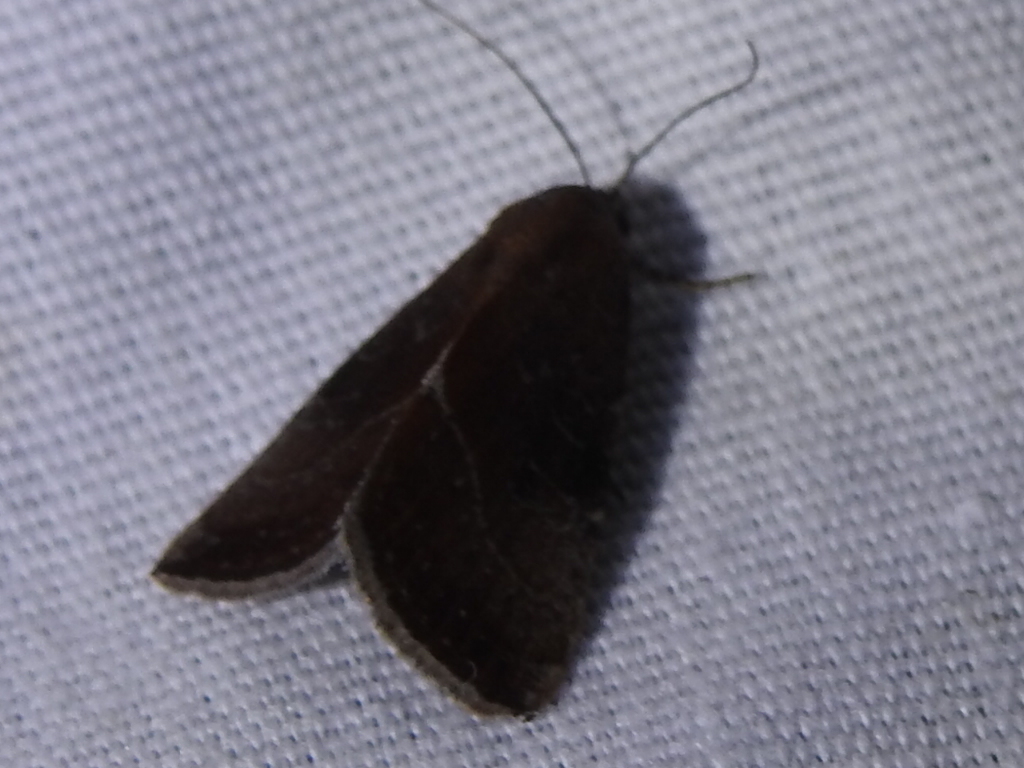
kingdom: Animalia
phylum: Arthropoda
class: Insecta
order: Lepidoptera
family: Noctuidae
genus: Galgula
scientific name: Galgula partita
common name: Wedgeling
